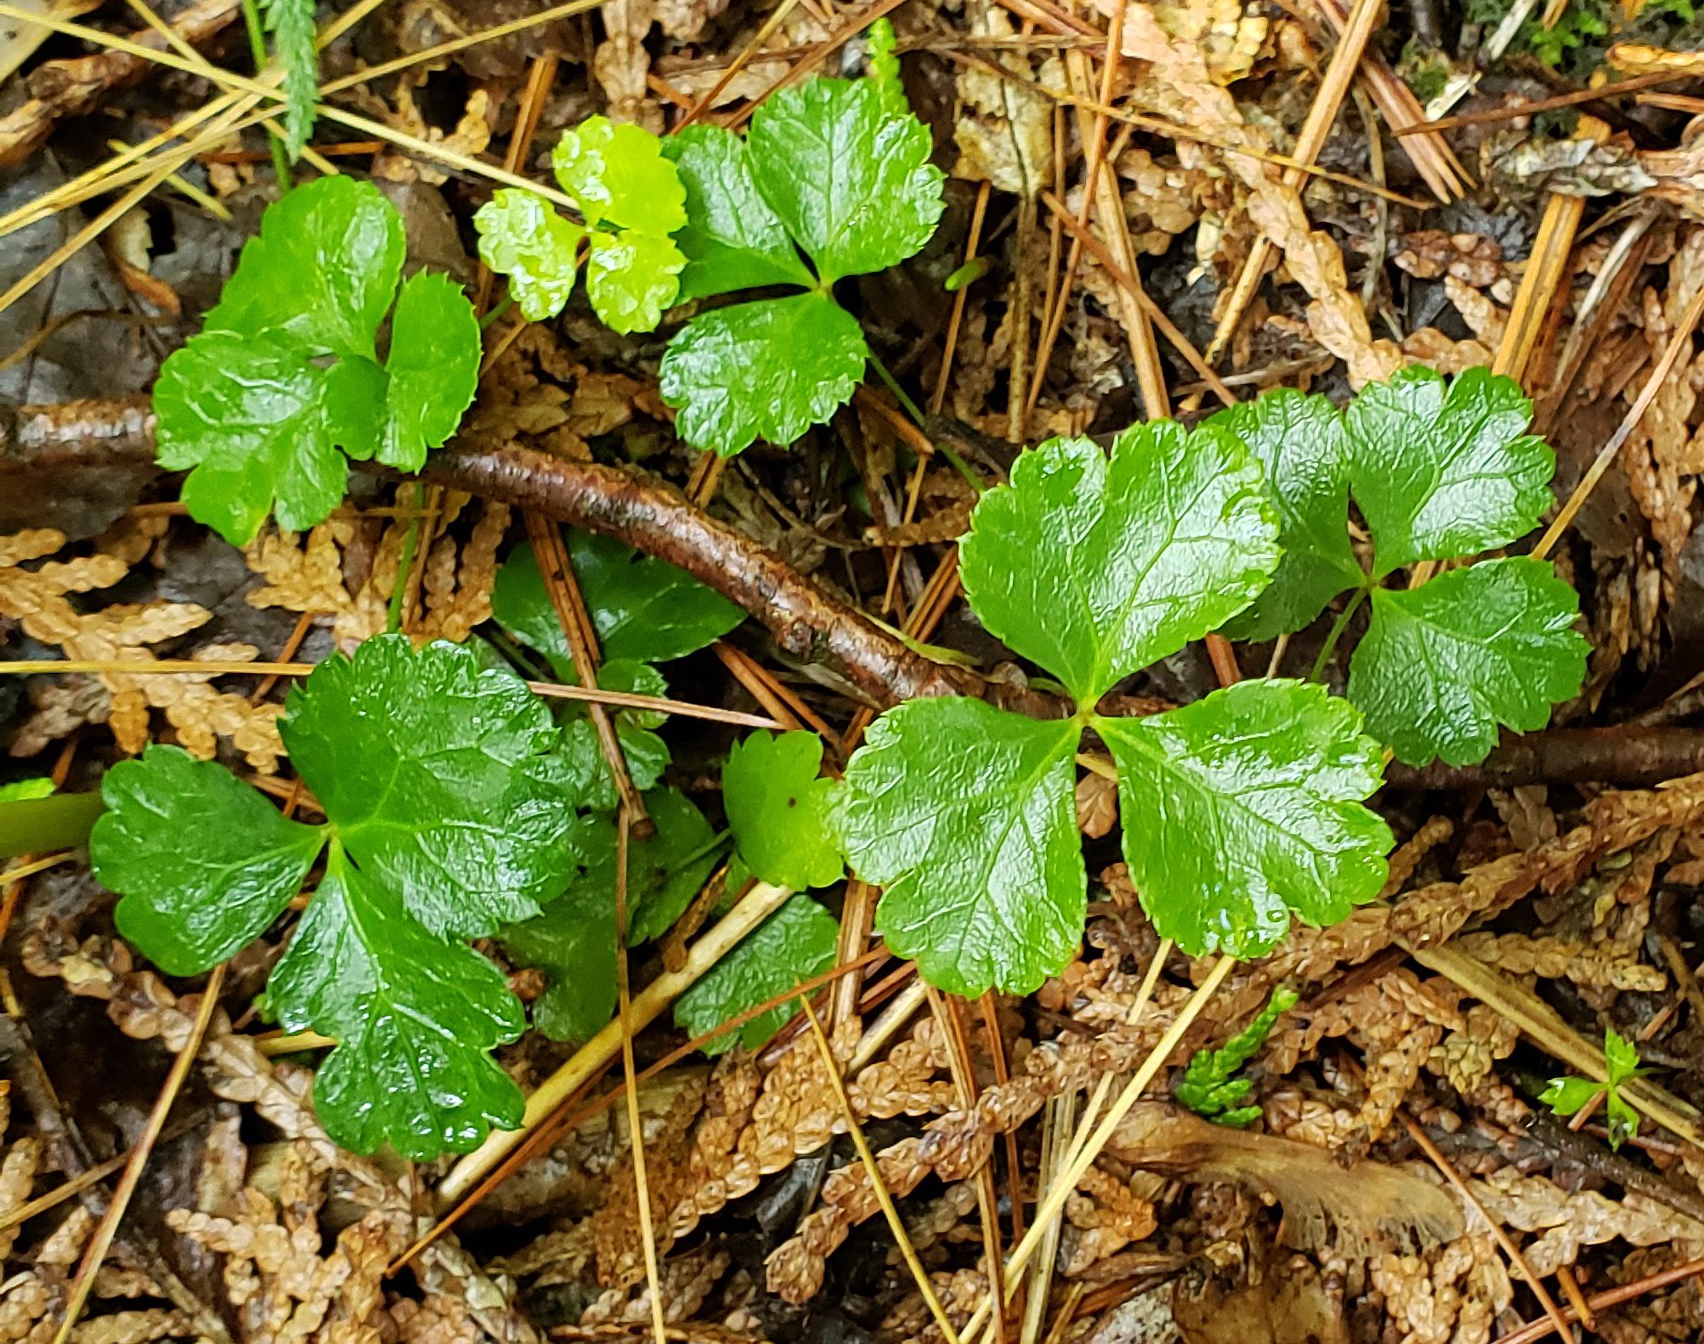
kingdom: Plantae
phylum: Tracheophyta
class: Magnoliopsida
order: Ranunculales
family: Ranunculaceae
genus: Coptis
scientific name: Coptis trifolia
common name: Canker-root
